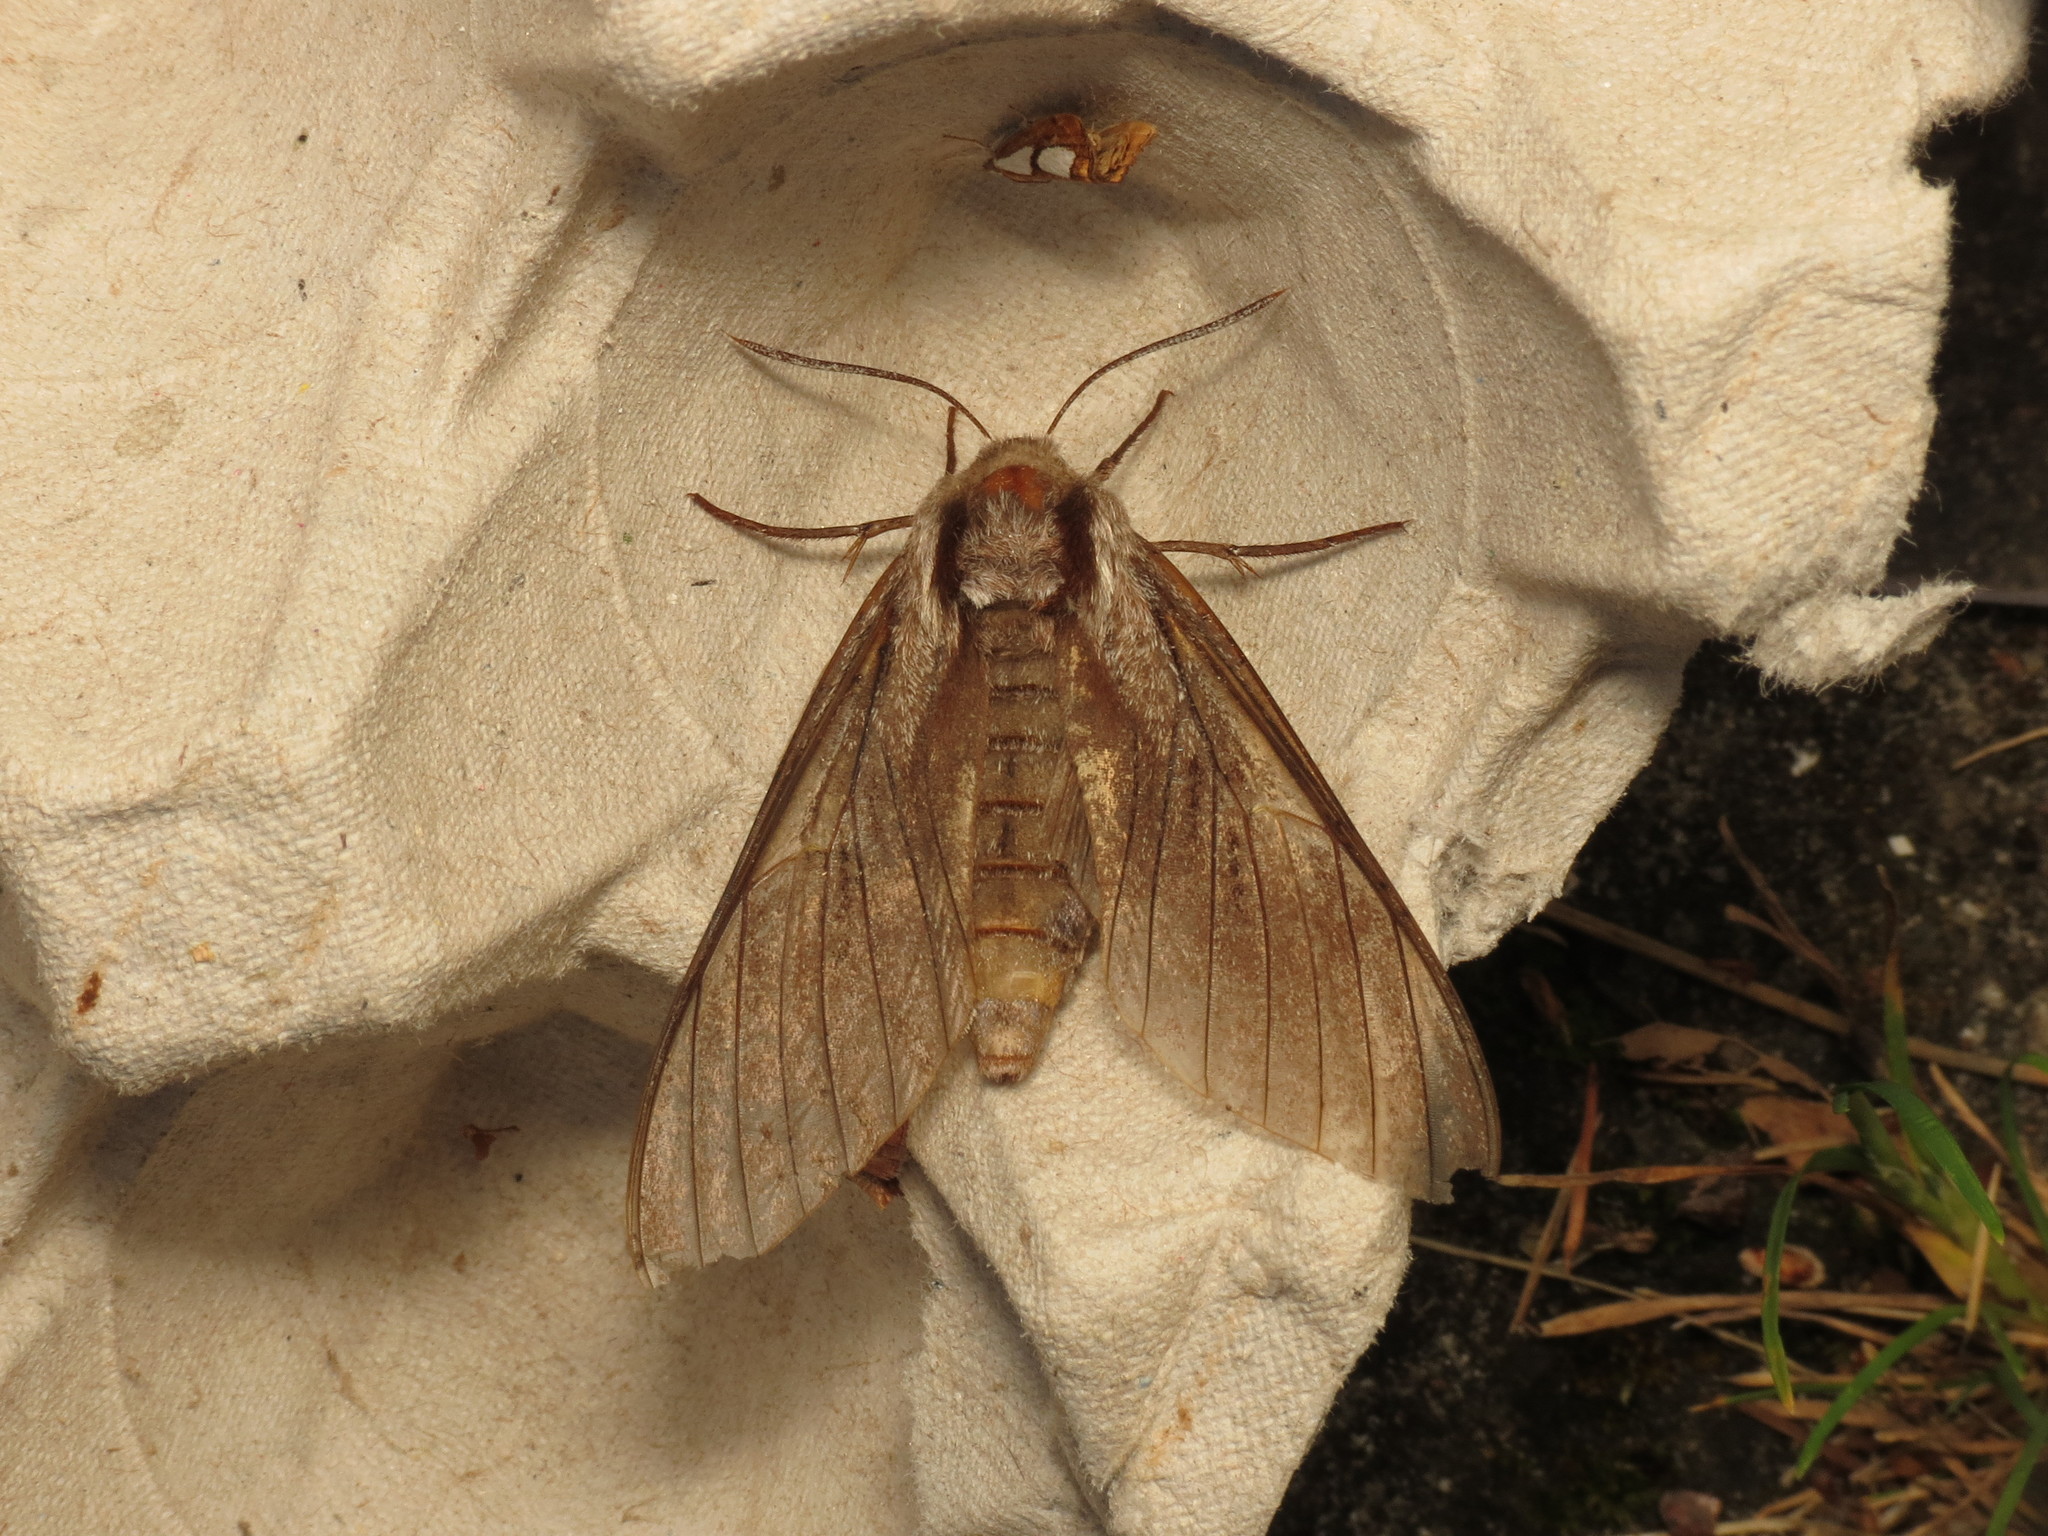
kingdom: Animalia
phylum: Arthropoda
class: Insecta
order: Lepidoptera
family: Sphingidae
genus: Sphinx
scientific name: Sphinx pinastri
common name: Pine hawk-moth
